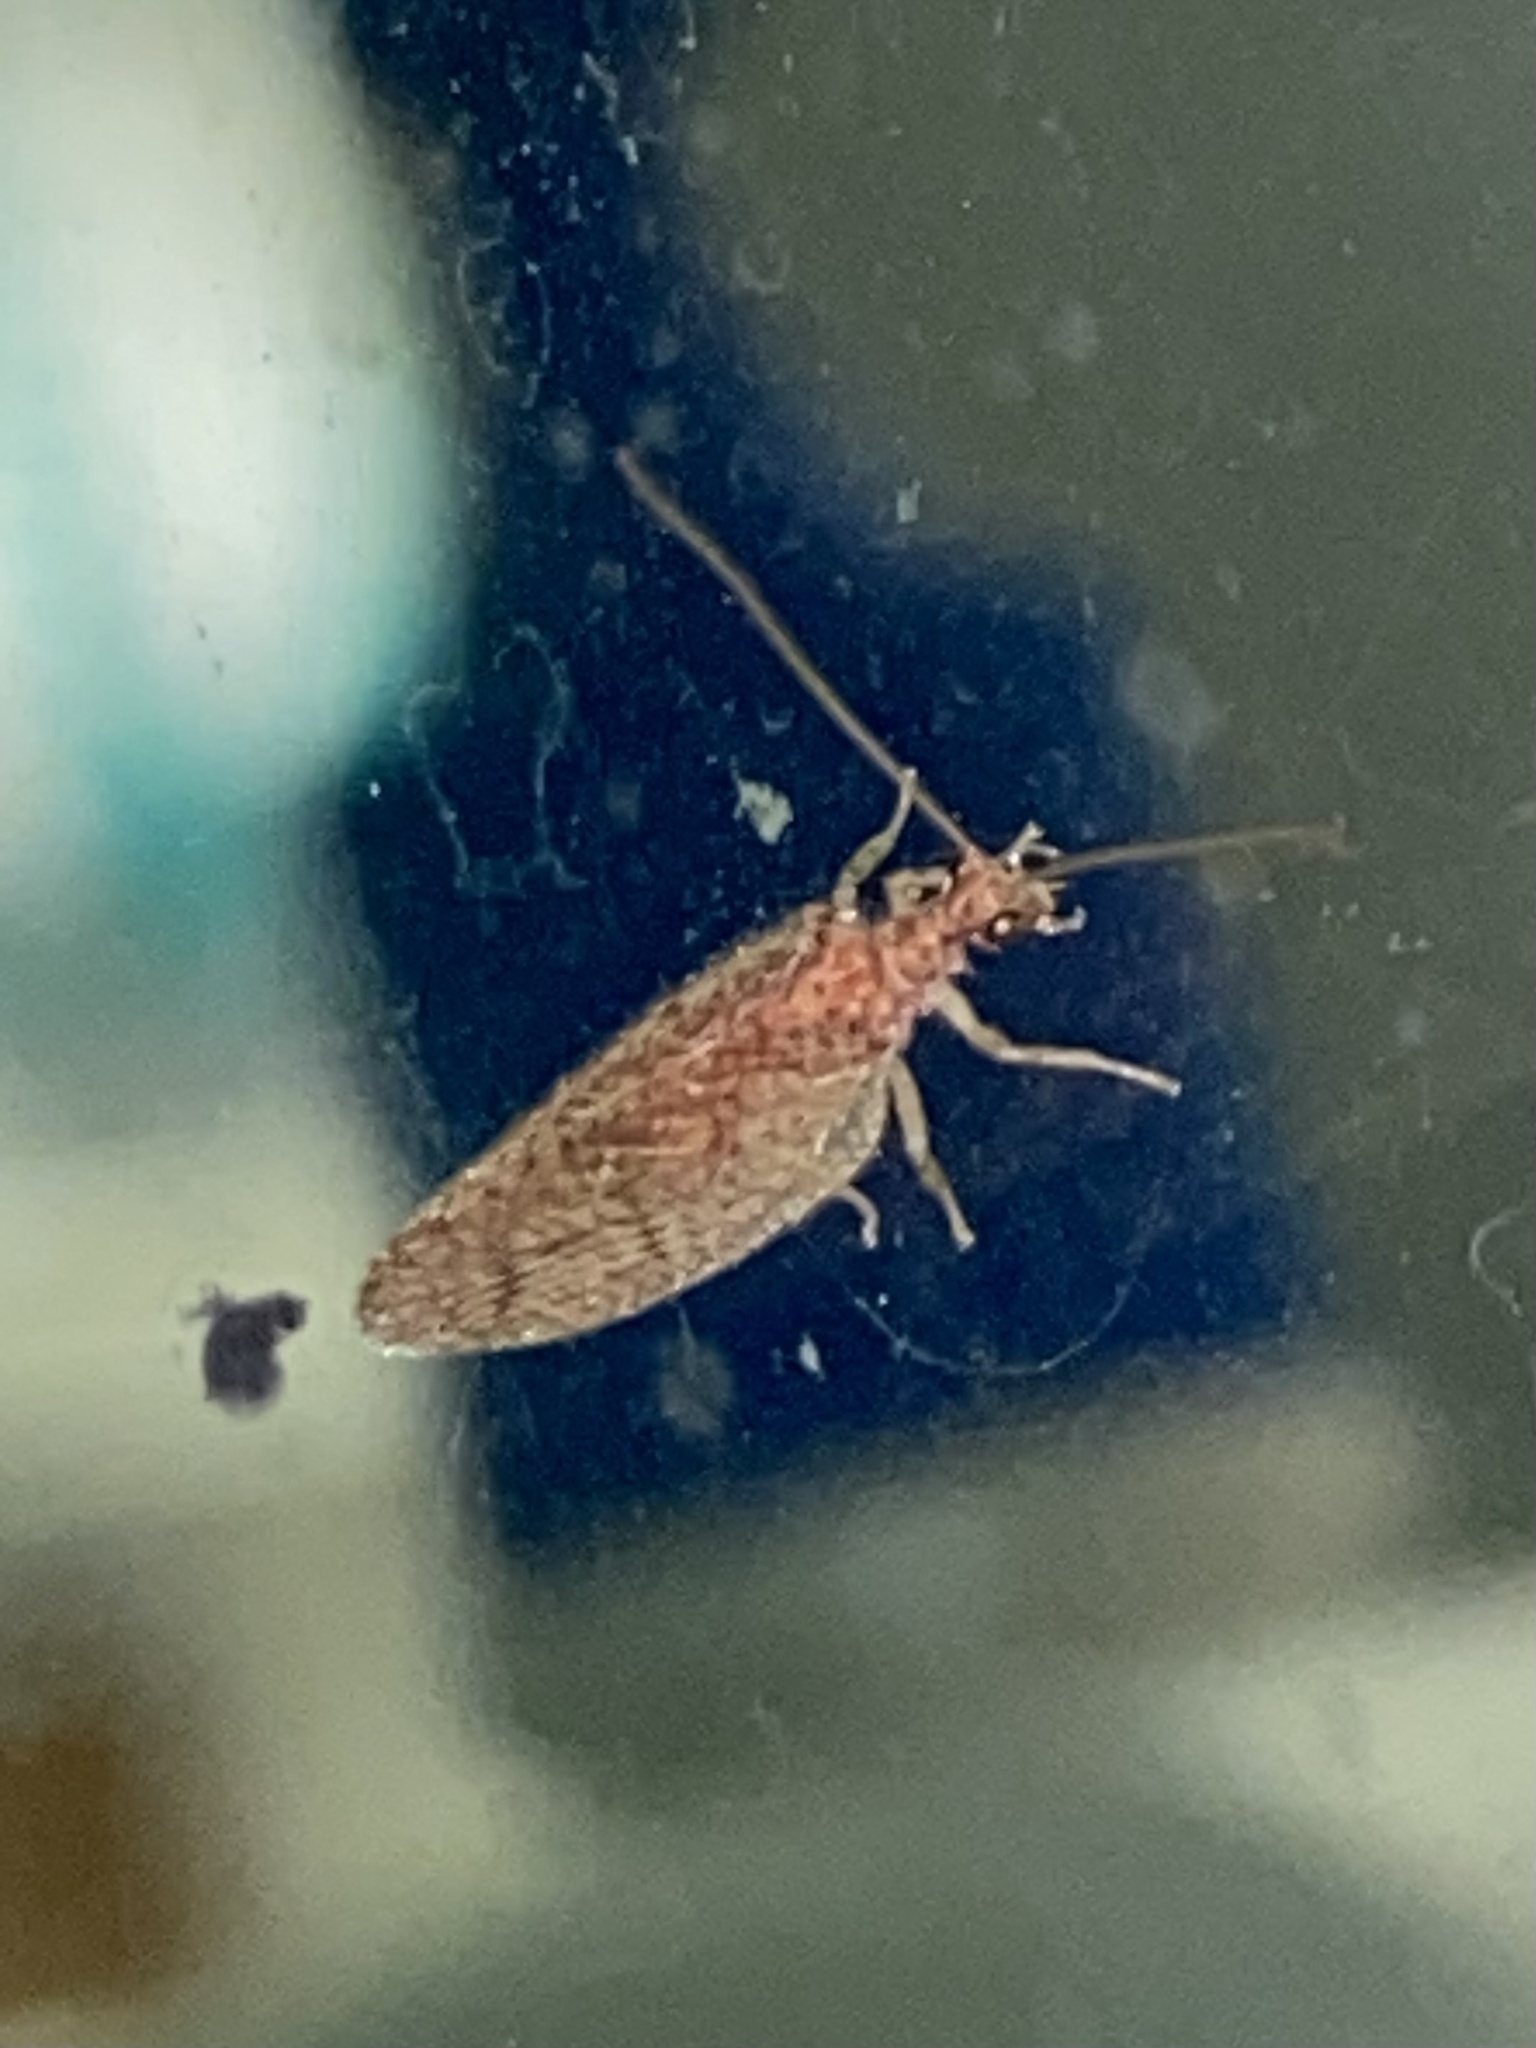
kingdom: Animalia
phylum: Arthropoda
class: Insecta
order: Neuroptera
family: Hemerobiidae
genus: Micromus
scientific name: Micromus posticus
